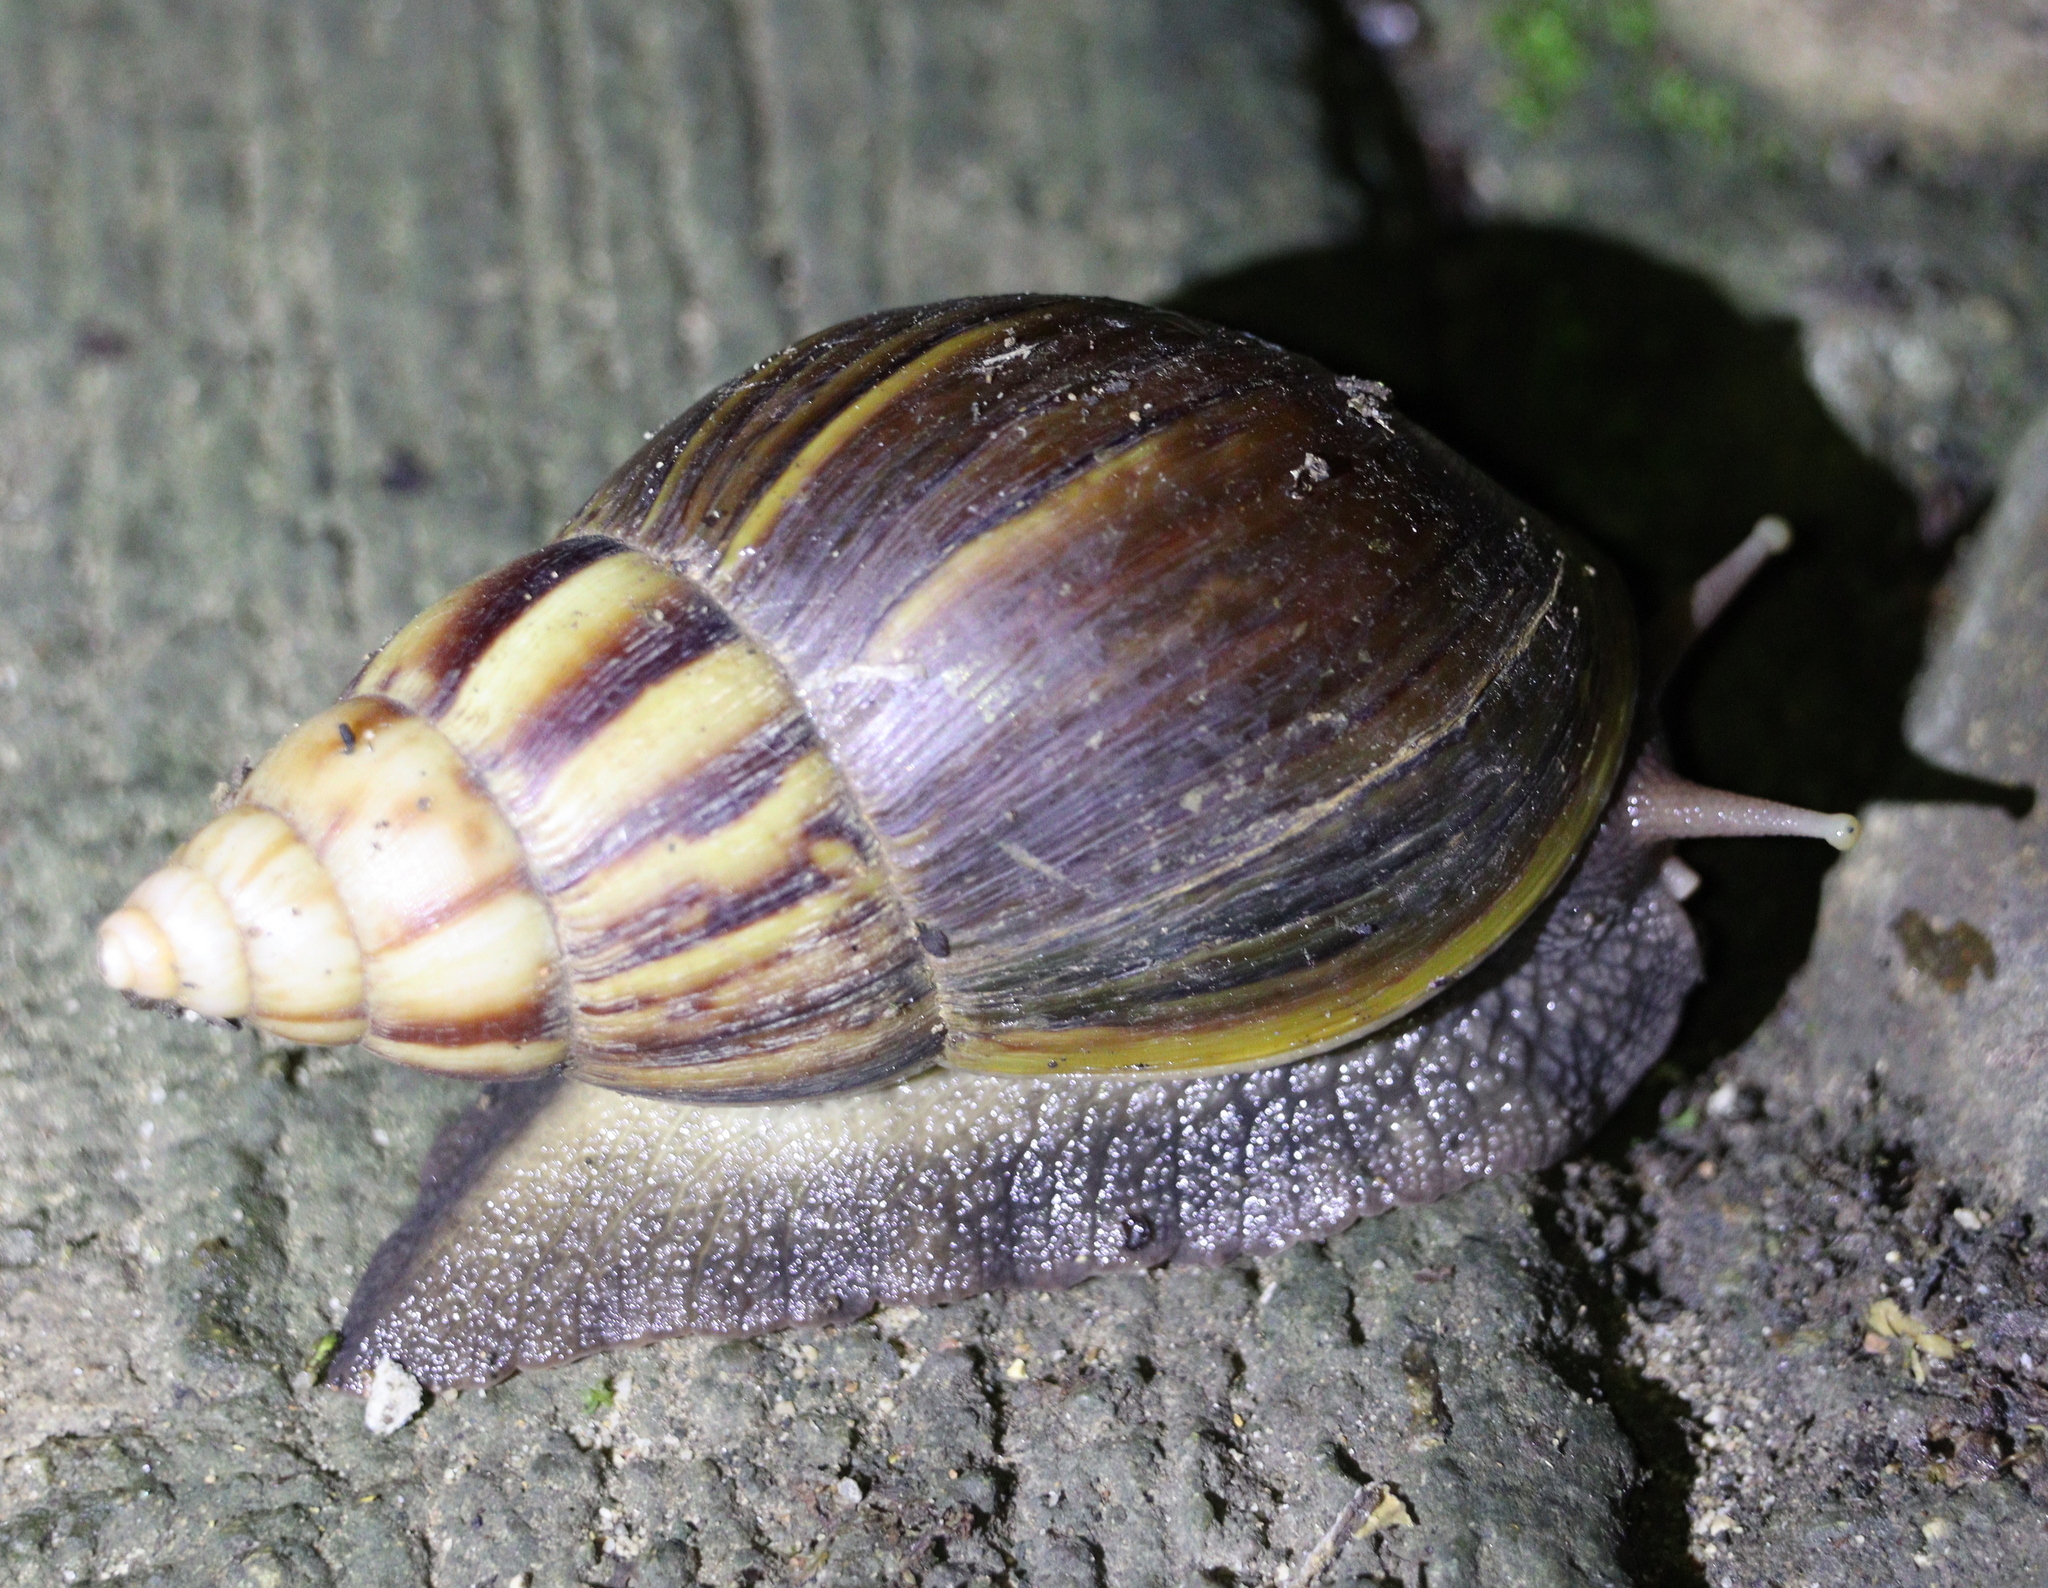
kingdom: Animalia
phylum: Mollusca
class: Gastropoda
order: Stylommatophora
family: Achatinidae
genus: Lissachatina
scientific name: Lissachatina fulica
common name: Giant african snail
